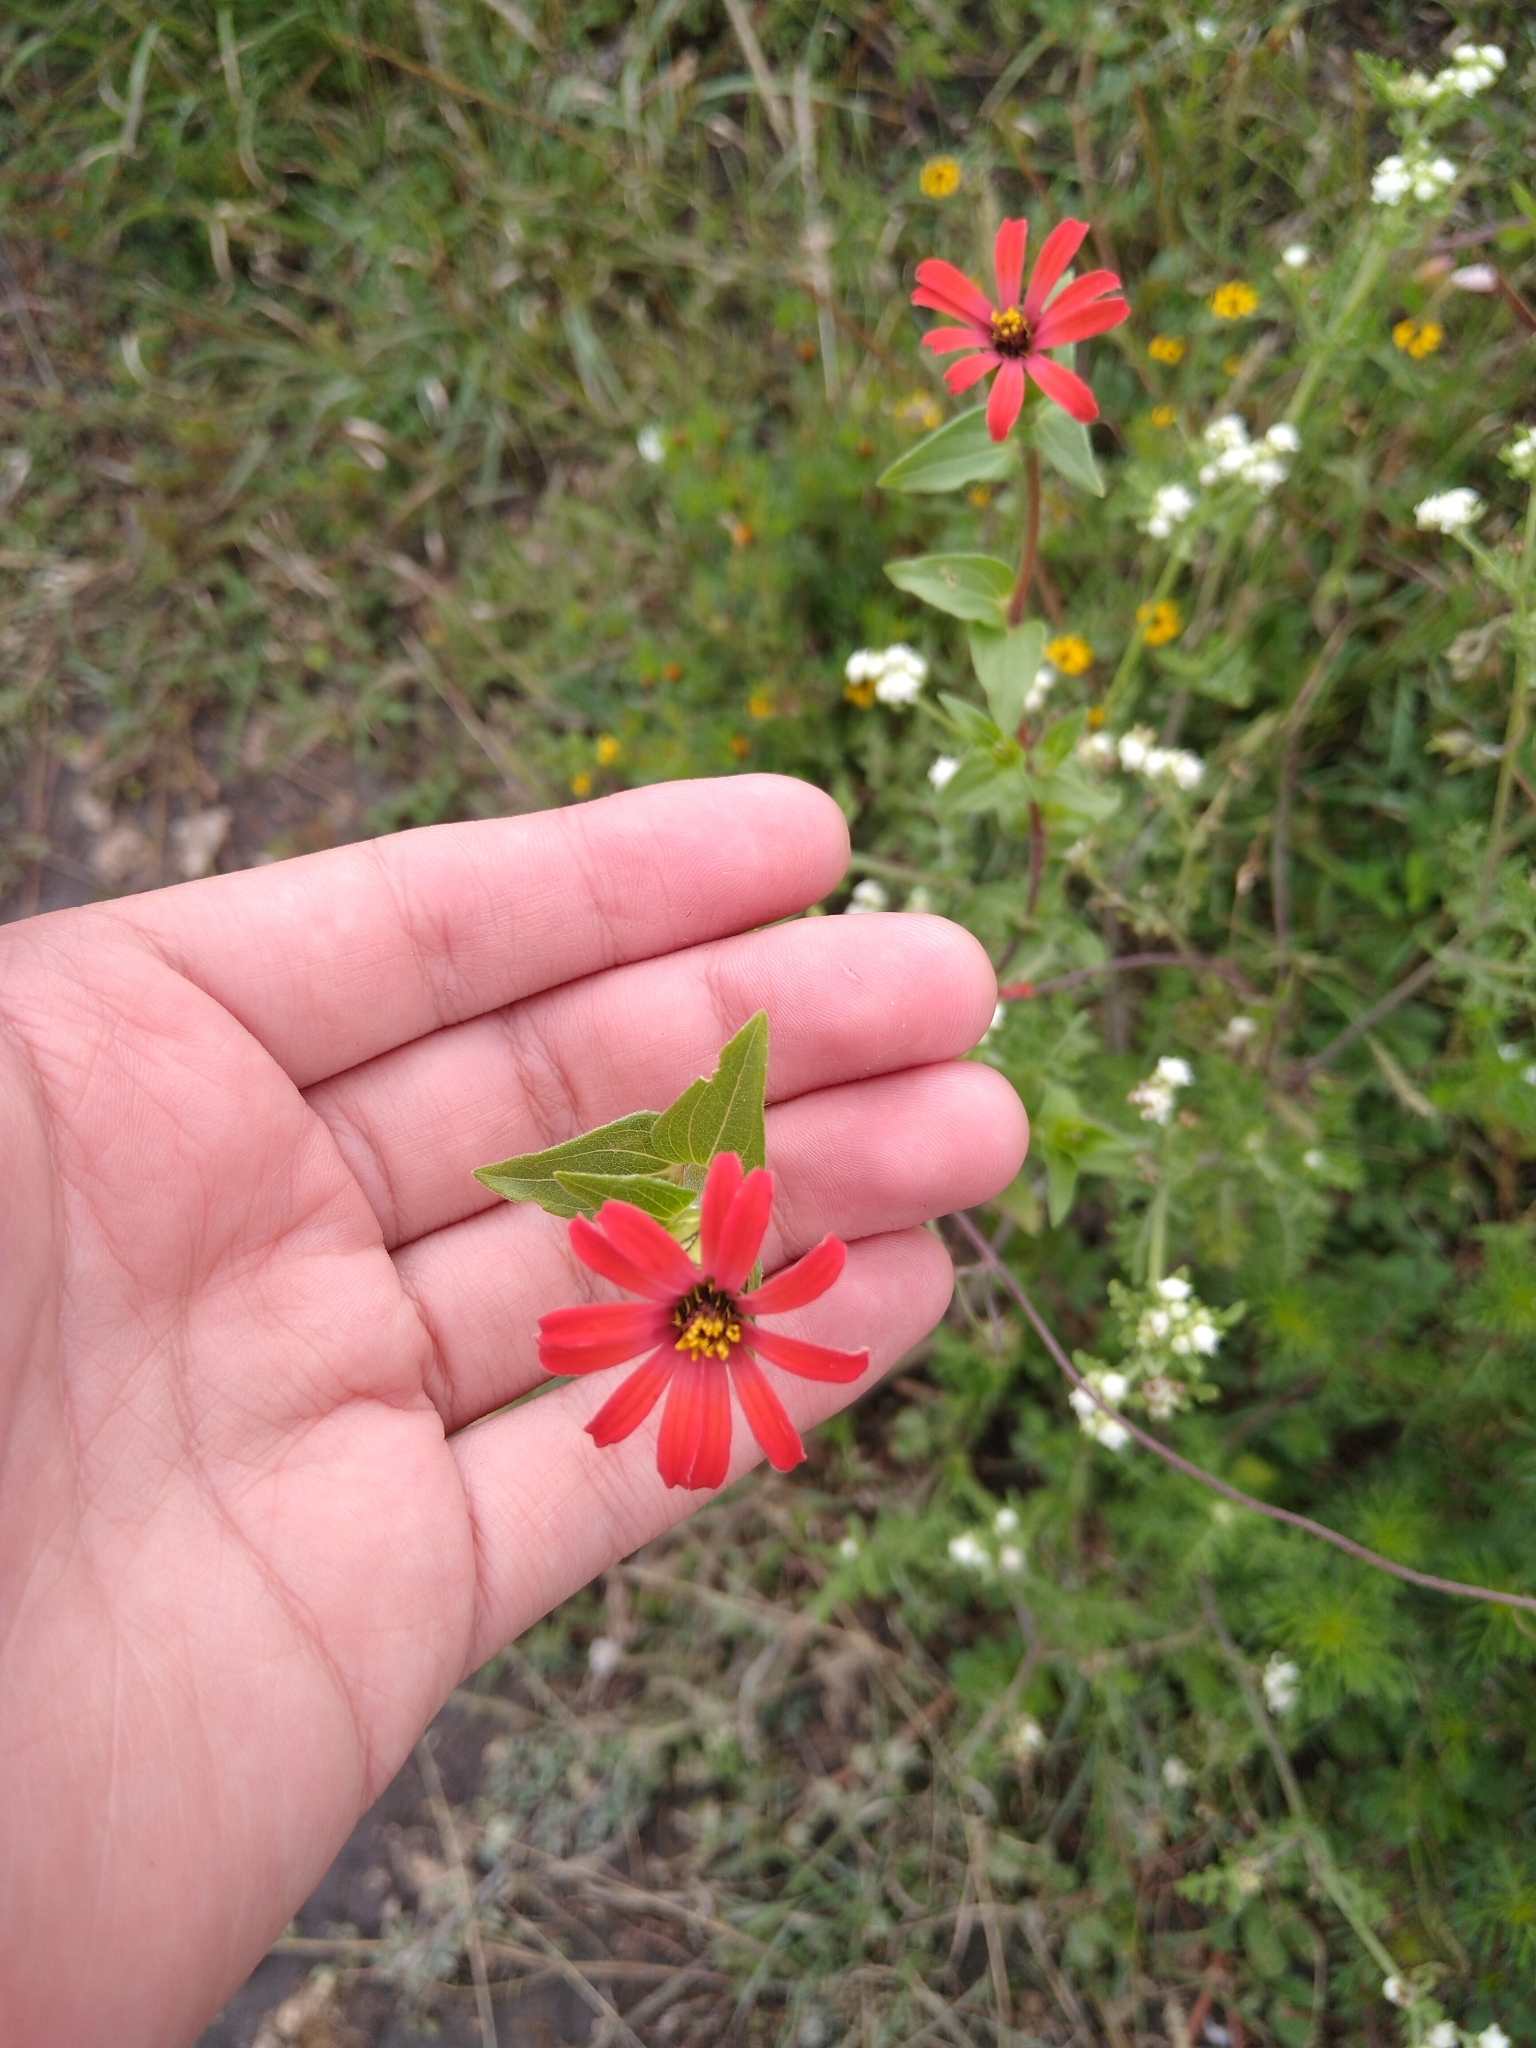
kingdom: Plantae
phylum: Tracheophyta
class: Magnoliopsida
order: Asterales
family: Asteraceae
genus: Zinnia
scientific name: Zinnia peruviana
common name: Peruvian zinnia
